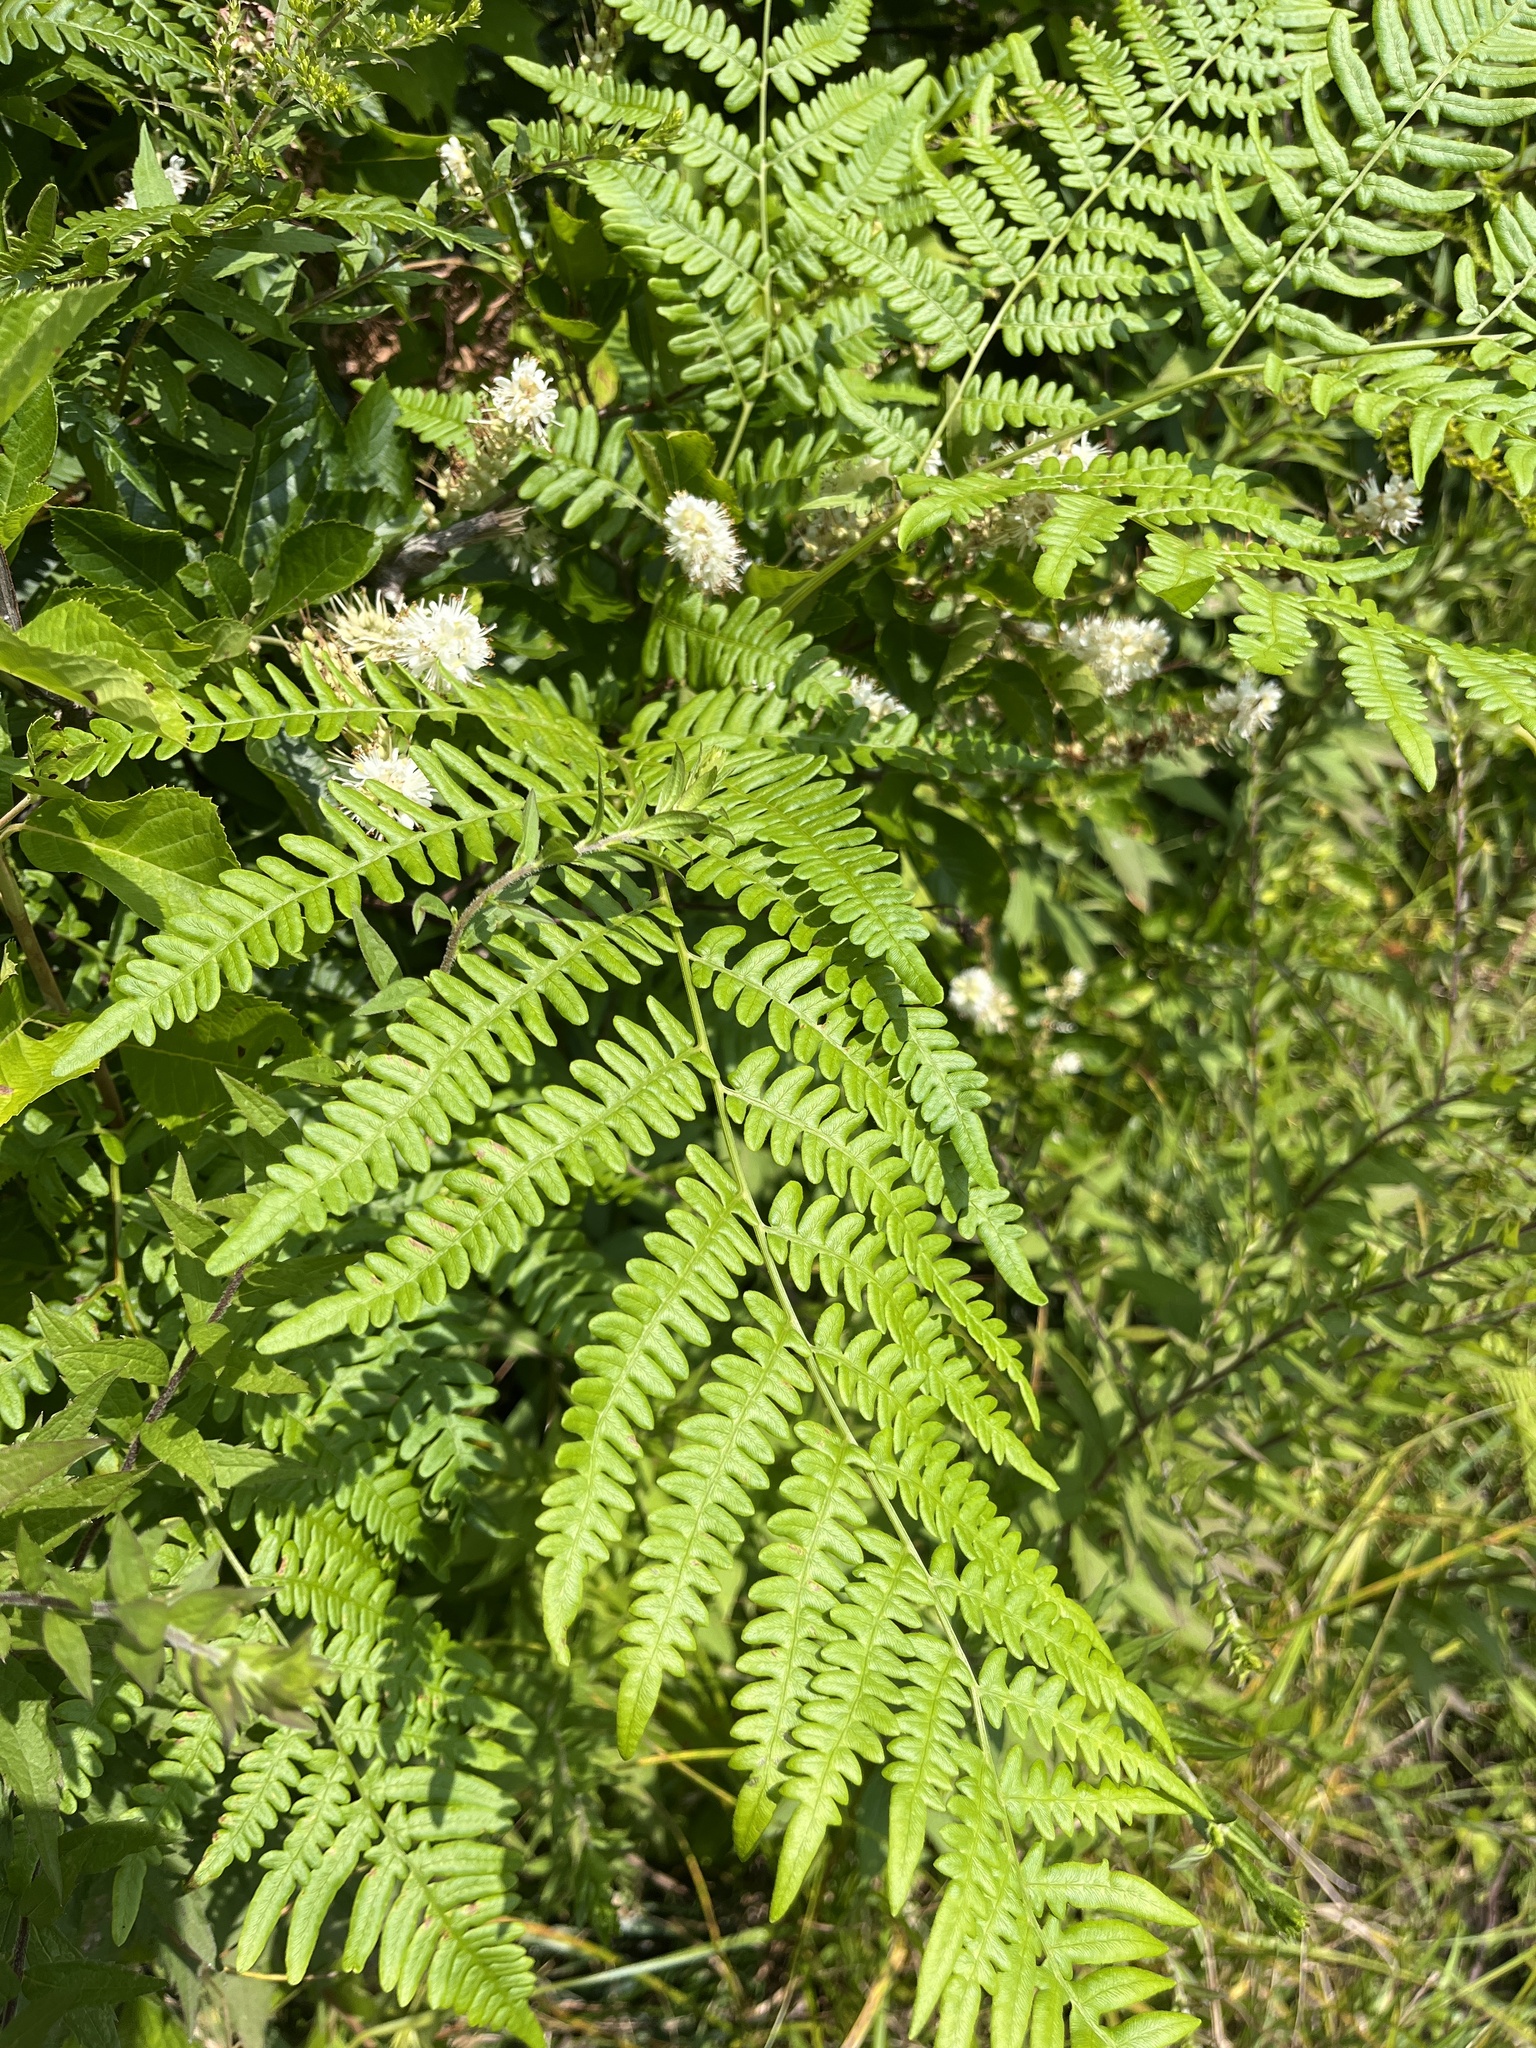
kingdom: Plantae
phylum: Tracheophyta
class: Polypodiopsida
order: Polypodiales
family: Dennstaedtiaceae
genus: Pteridium
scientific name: Pteridium aquilinum
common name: Bracken
